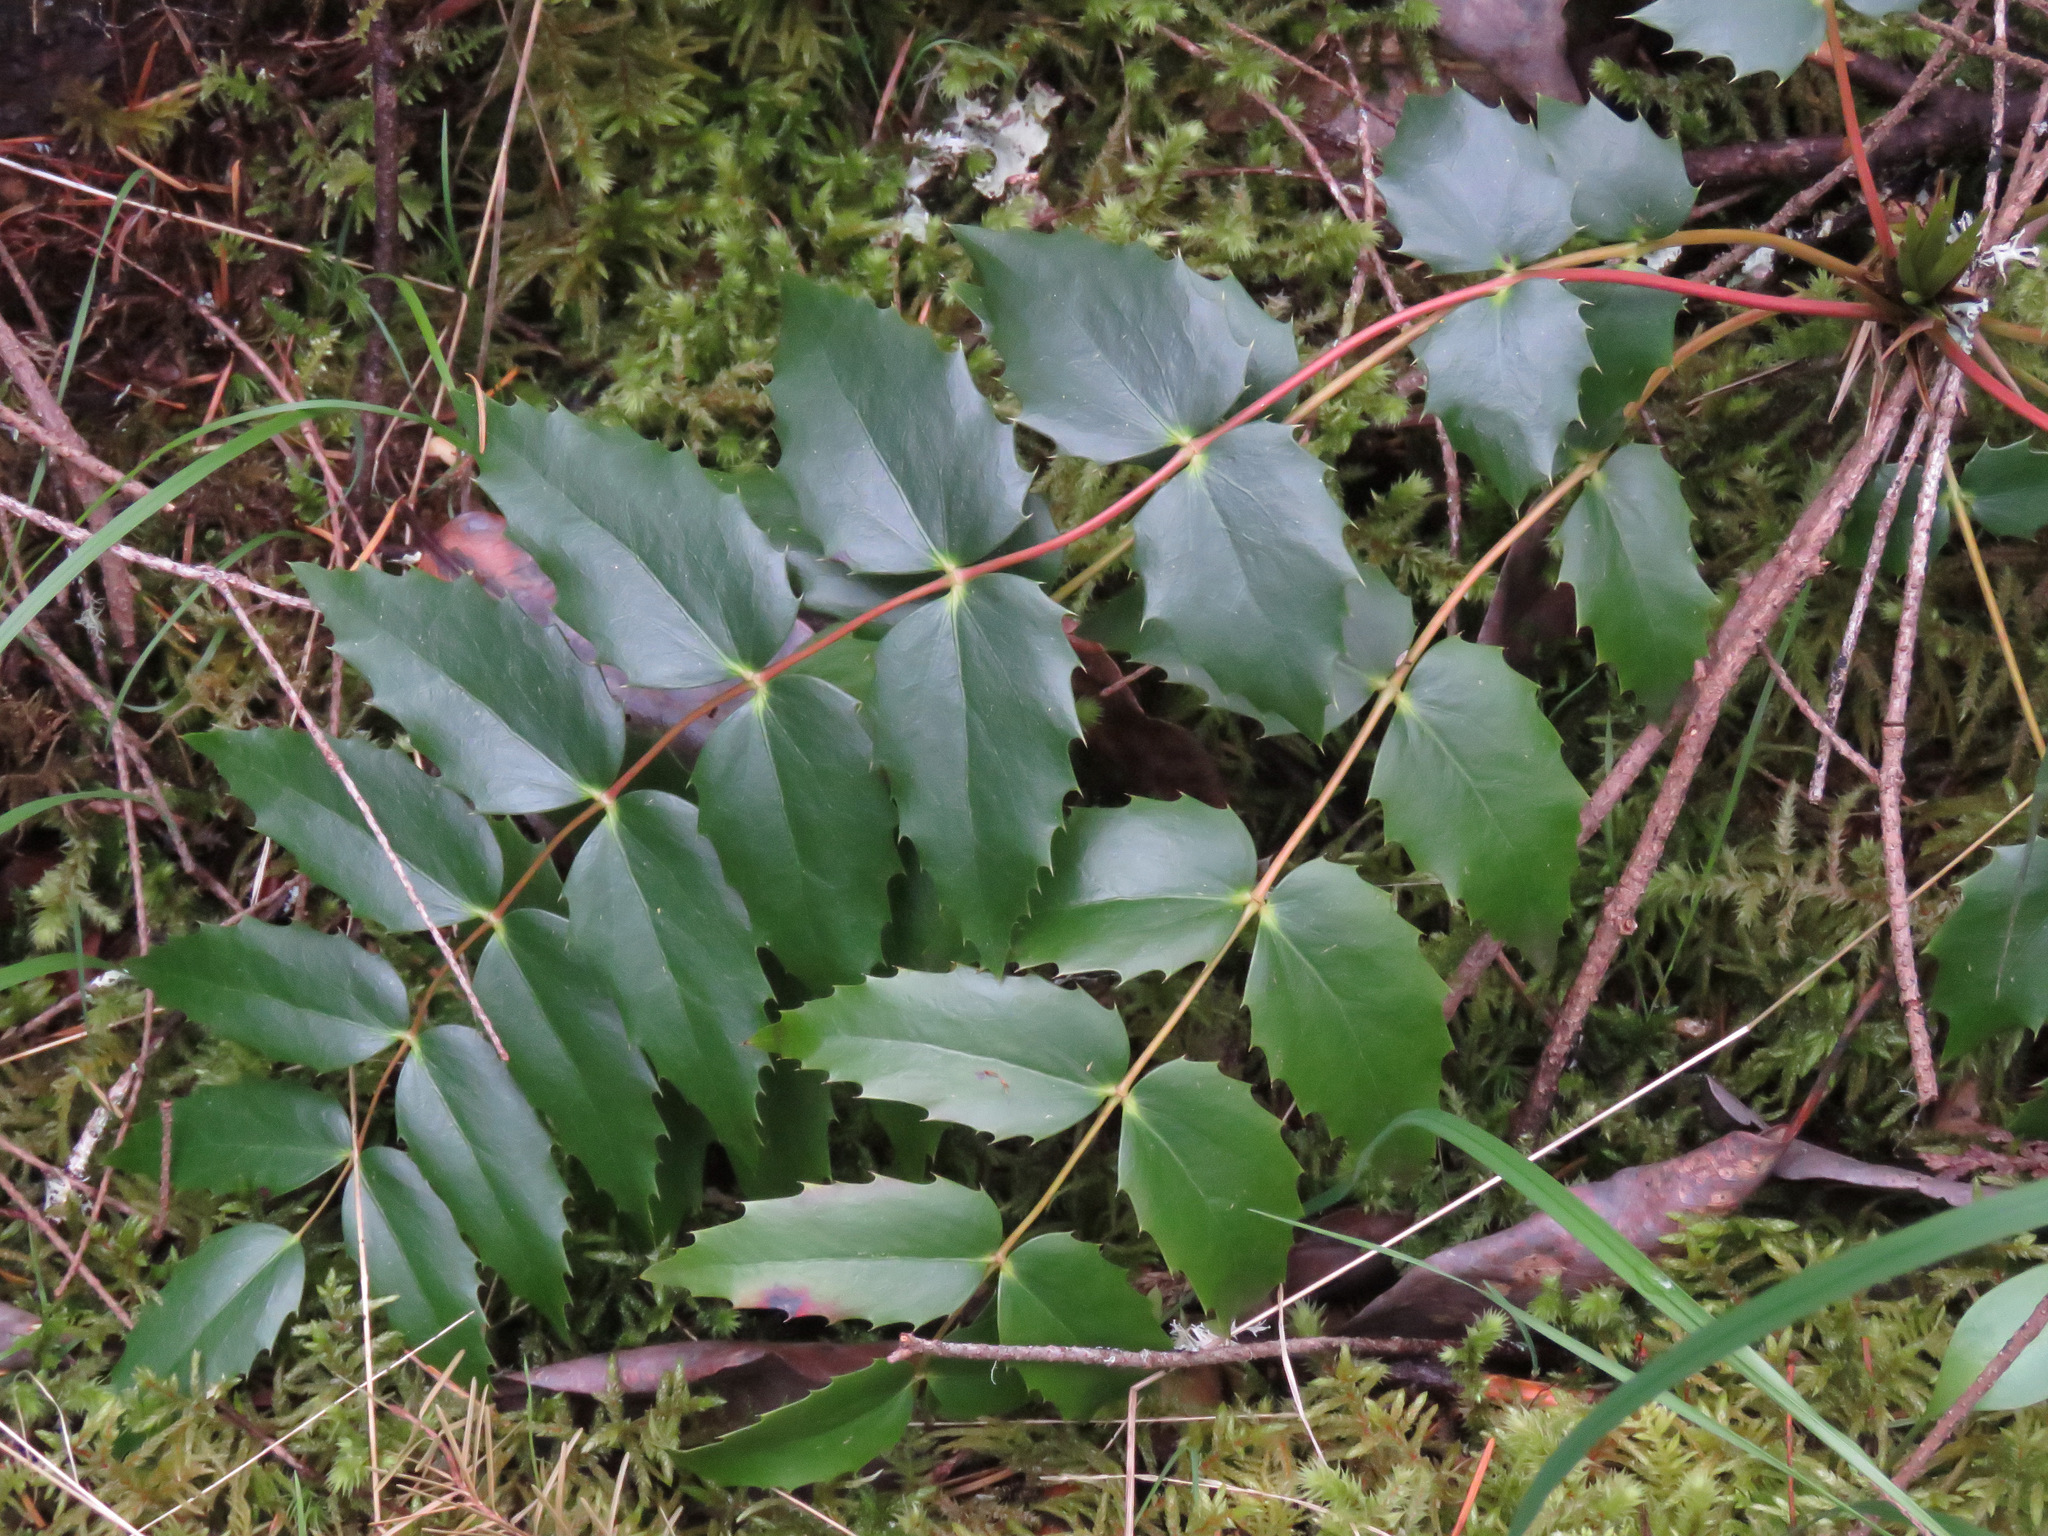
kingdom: Plantae
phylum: Tracheophyta
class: Magnoliopsida
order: Ranunculales
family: Berberidaceae
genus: Mahonia
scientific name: Mahonia nervosa
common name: Cascade oregon-grape
